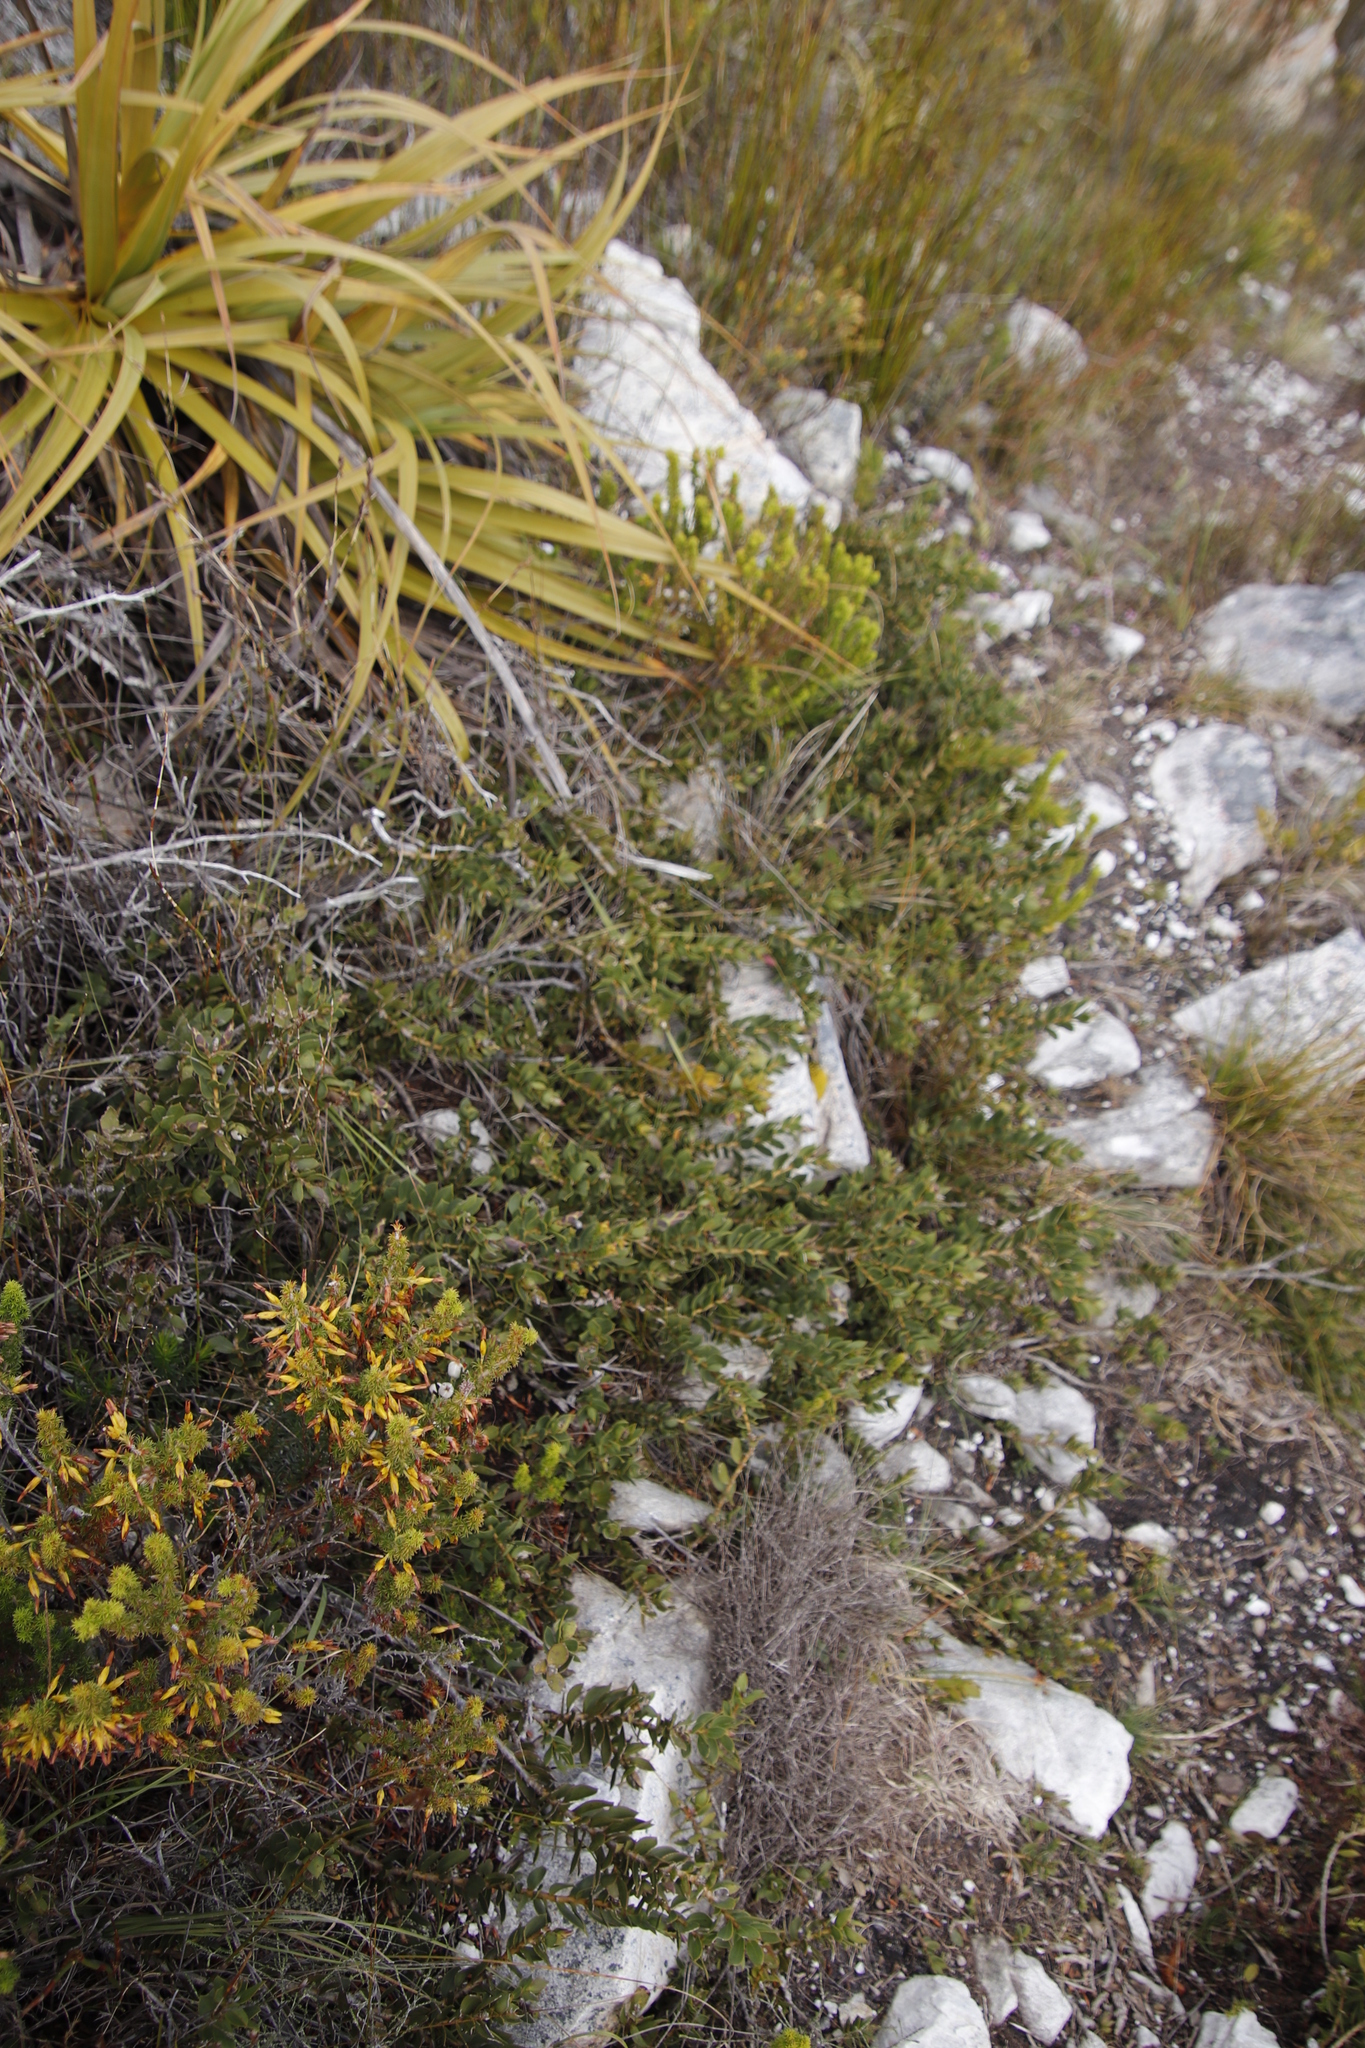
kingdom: Plantae
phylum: Tracheophyta
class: Magnoliopsida
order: Fabales
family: Fabaceae
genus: Liparia
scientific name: Liparia splendens
